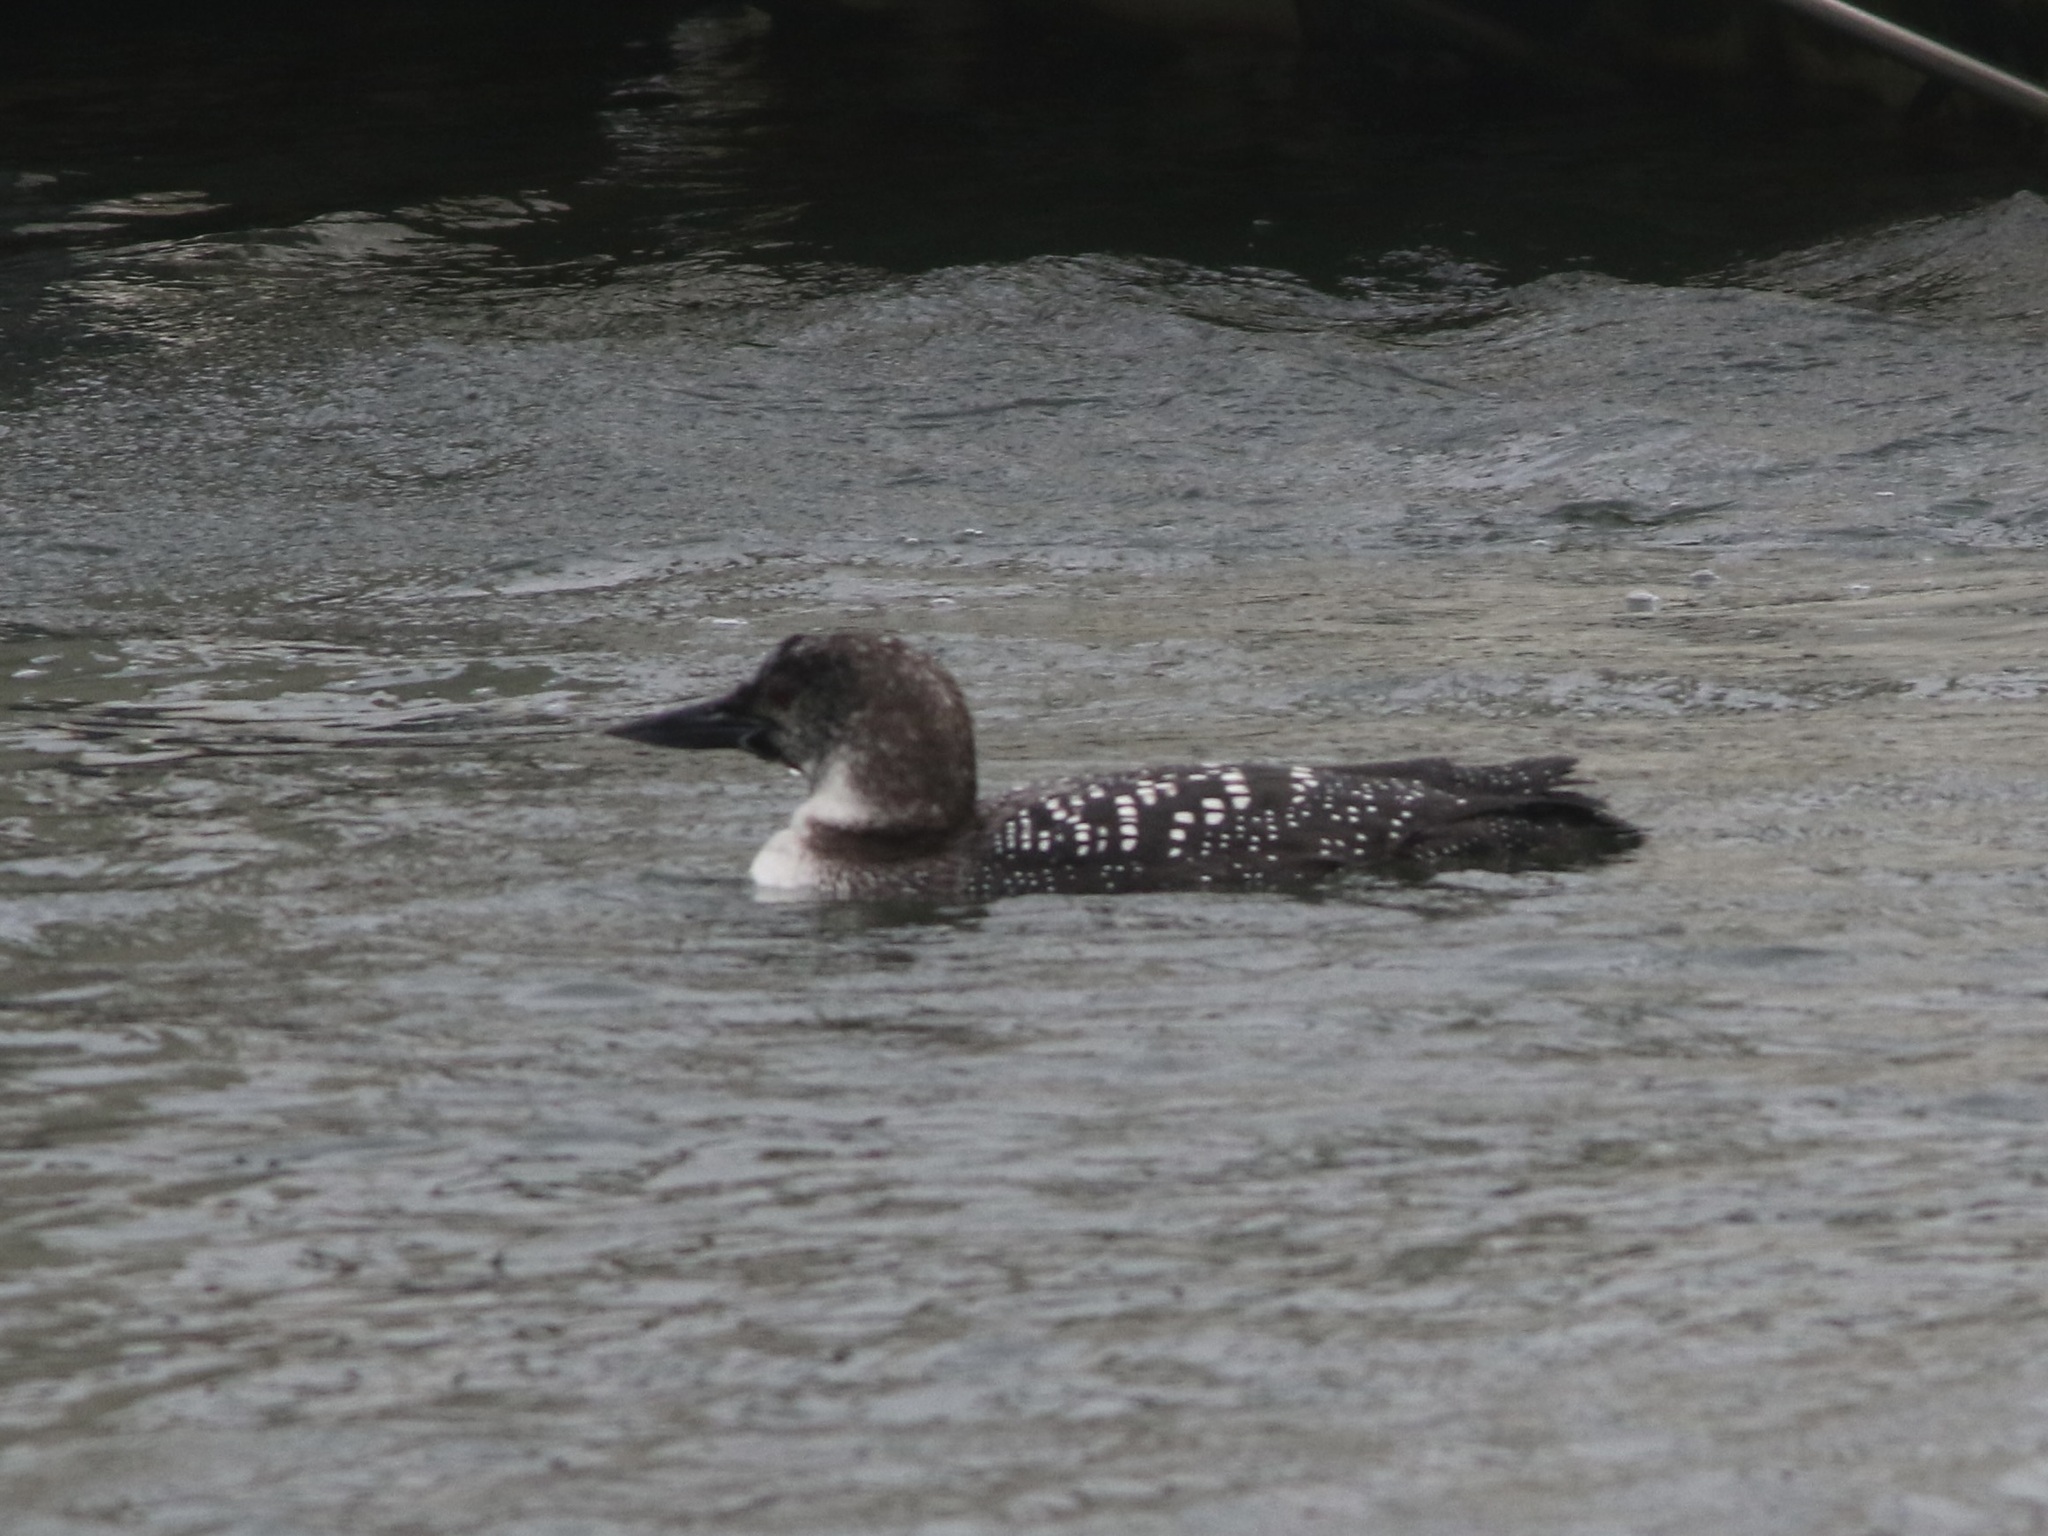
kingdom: Animalia
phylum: Chordata
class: Aves
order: Gaviiformes
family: Gaviidae
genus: Gavia
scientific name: Gavia immer
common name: Common loon
